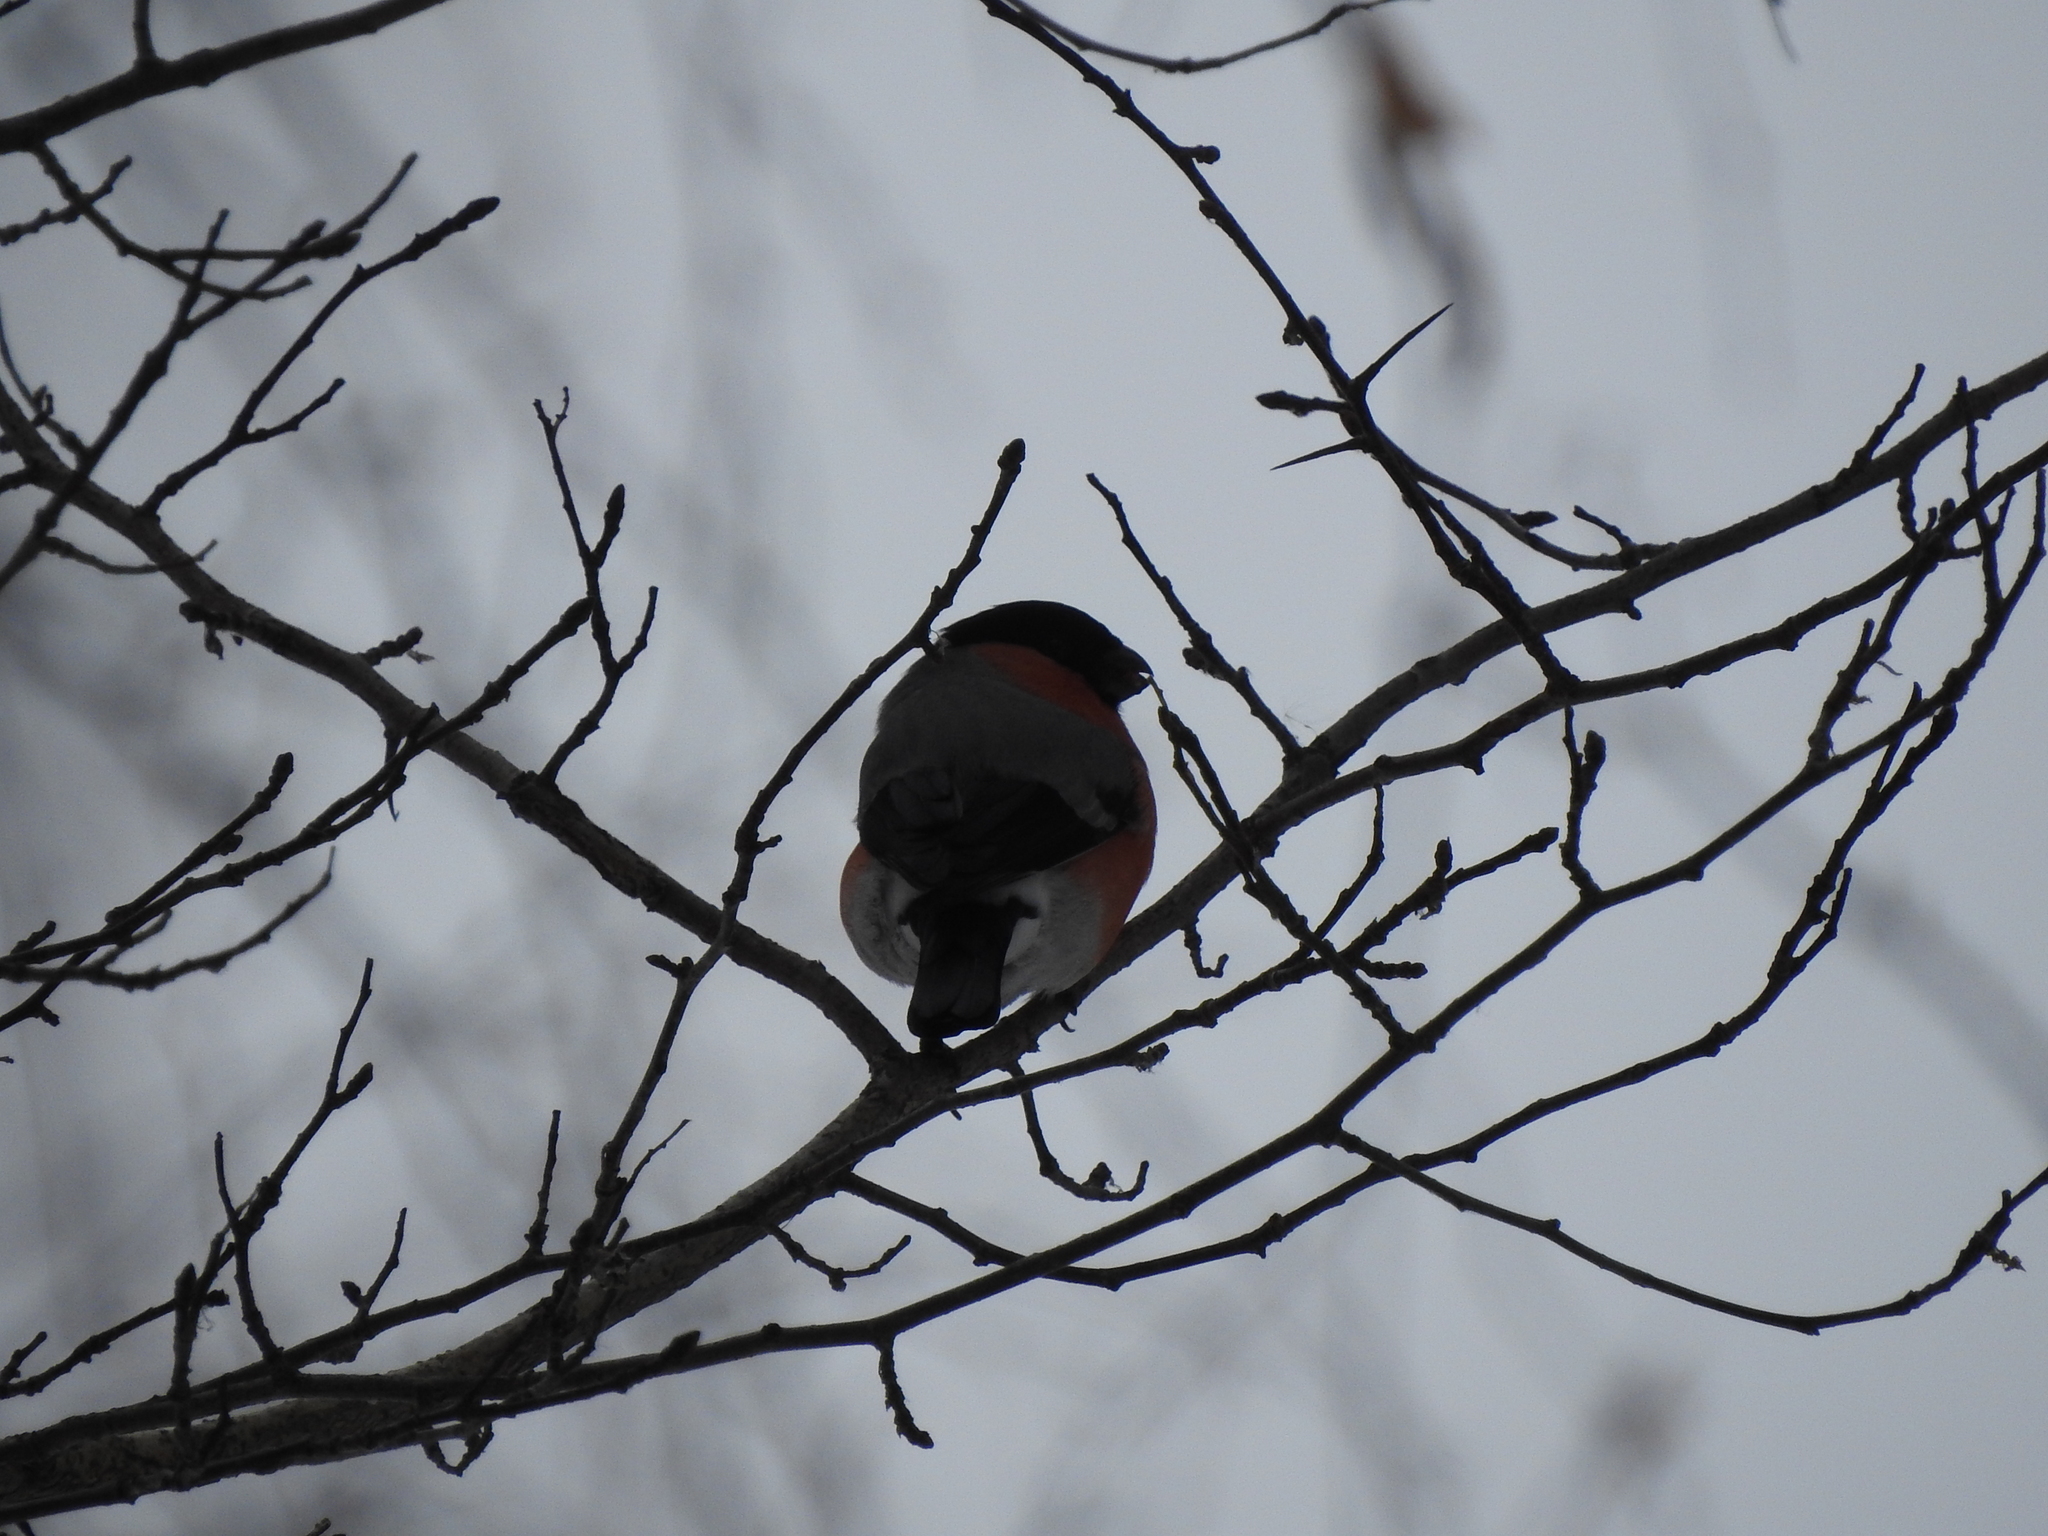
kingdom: Animalia
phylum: Chordata
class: Aves
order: Passeriformes
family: Fringillidae
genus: Pyrrhula
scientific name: Pyrrhula pyrrhula
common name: Eurasian bullfinch
